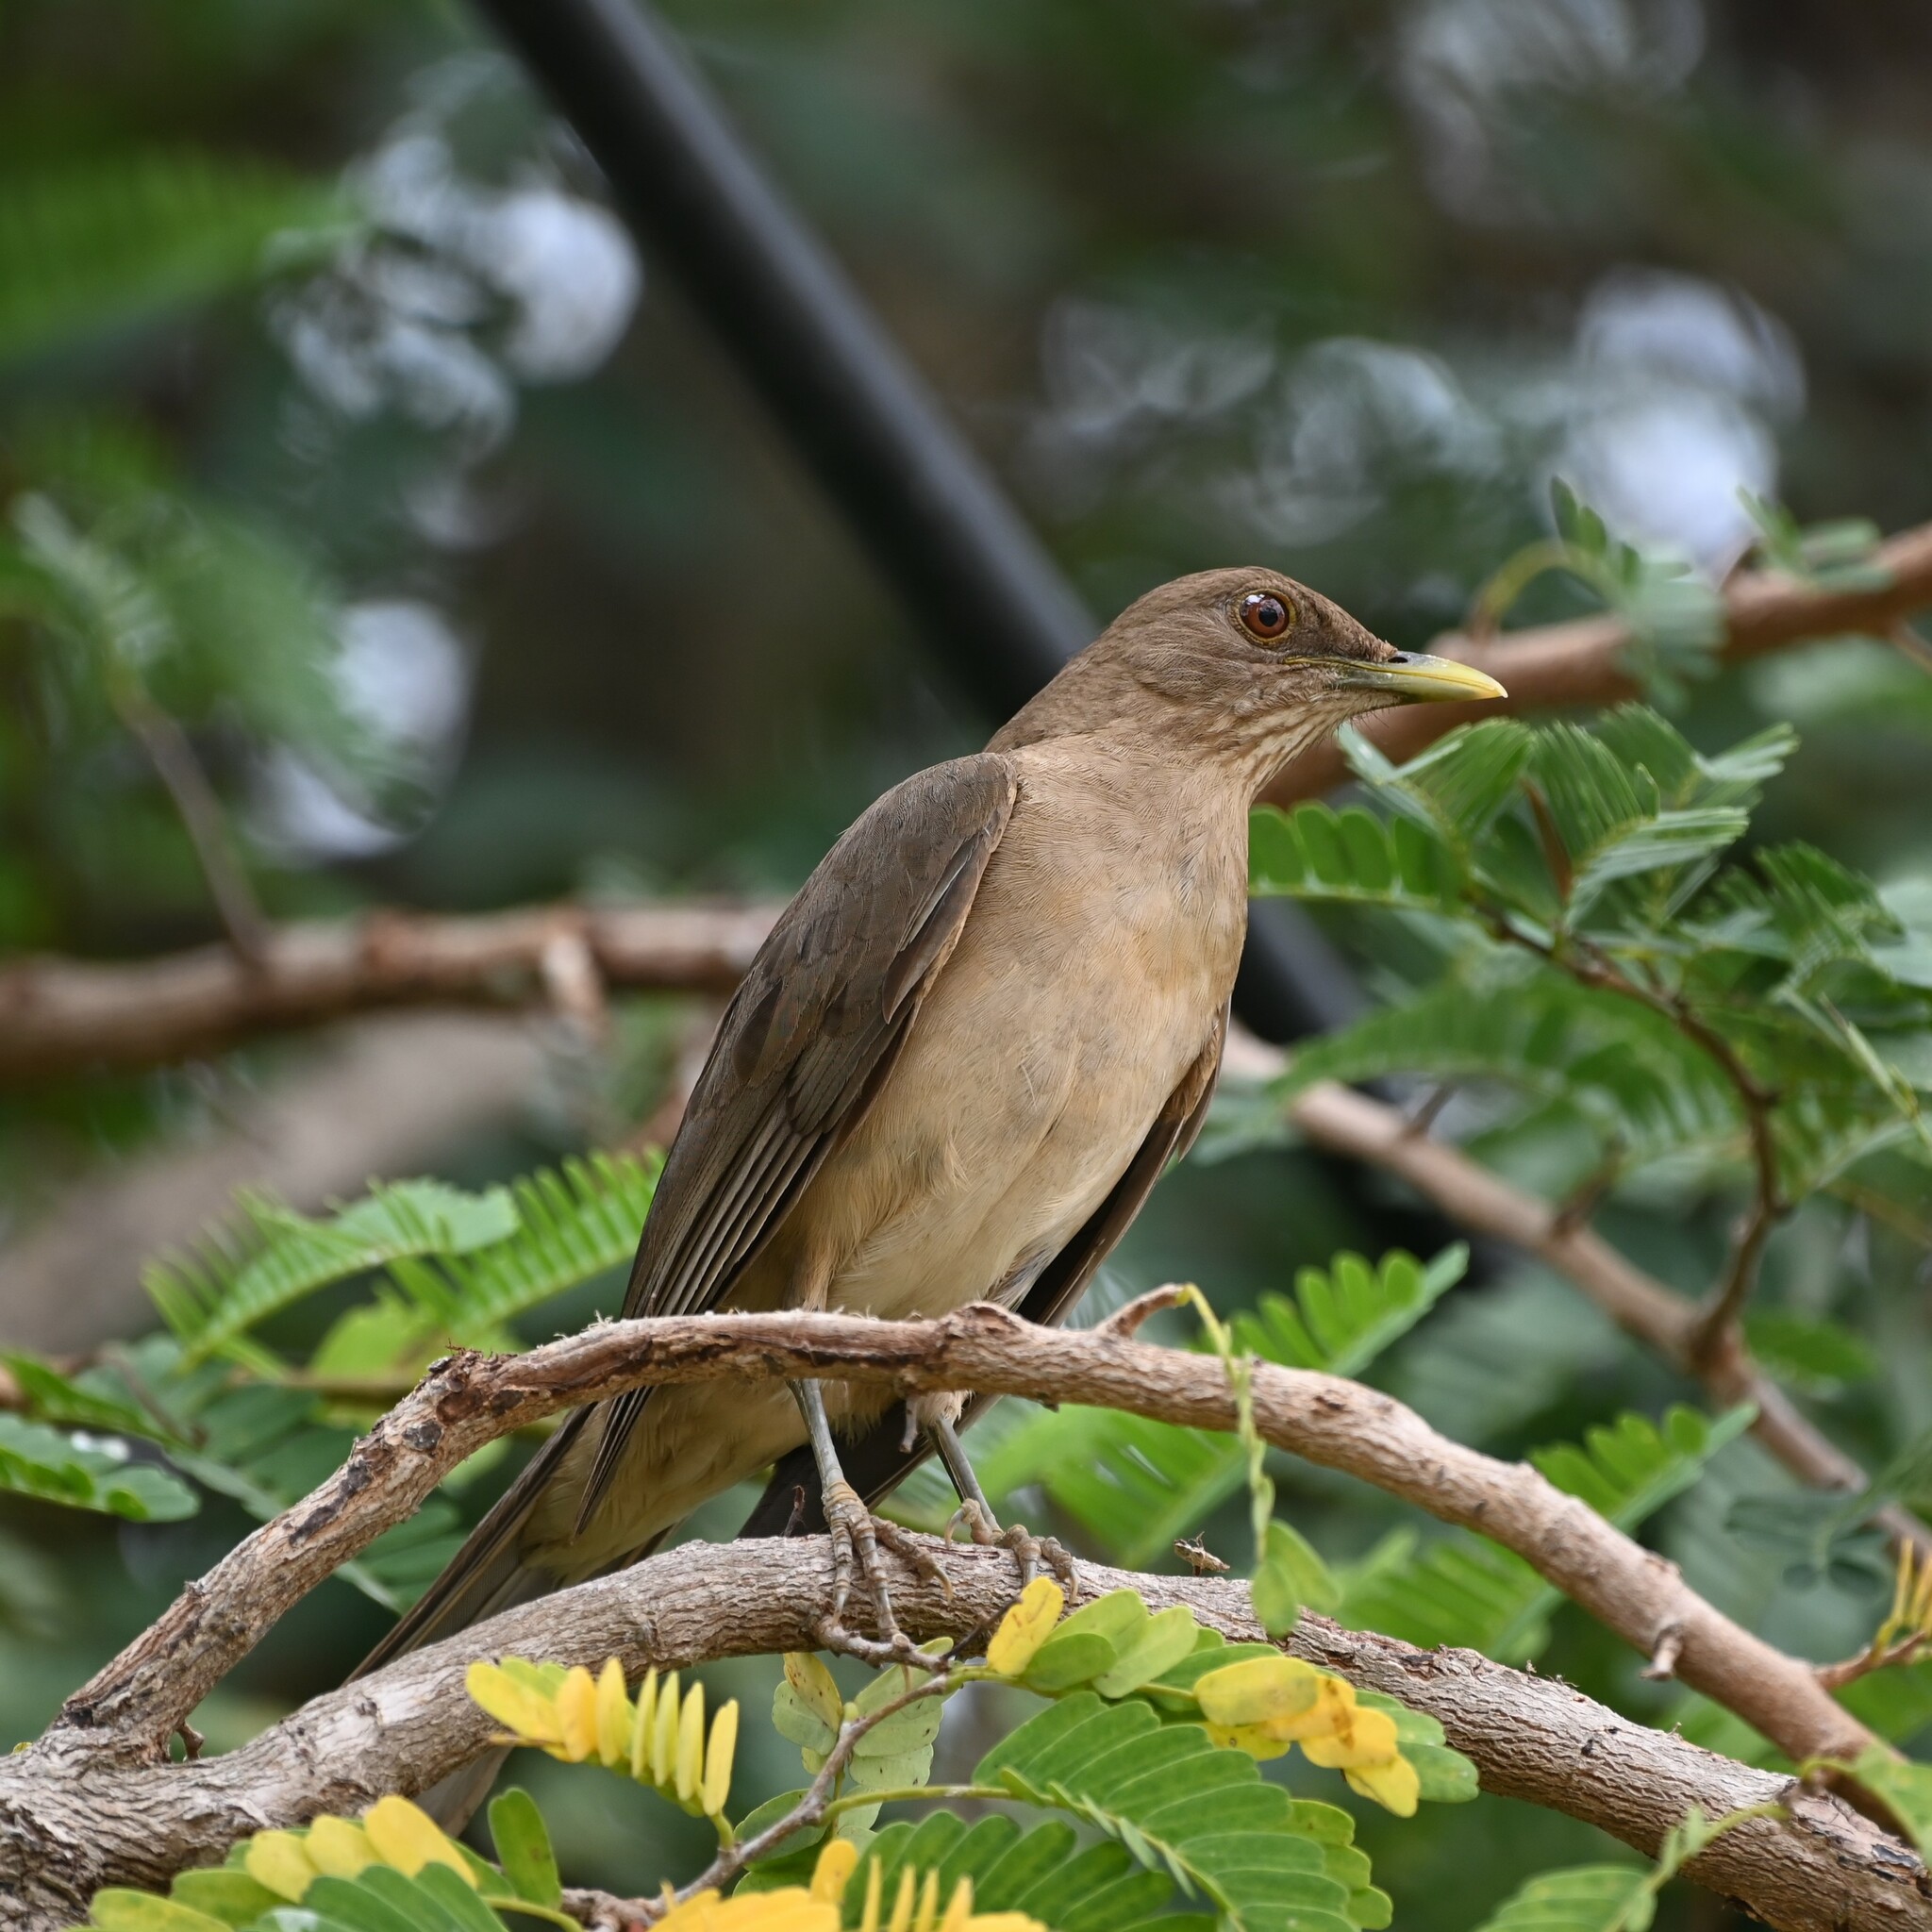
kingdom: Animalia
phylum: Chordata
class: Aves
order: Passeriformes
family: Turdidae
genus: Turdus
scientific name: Turdus grayi
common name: Clay-colored thrush
